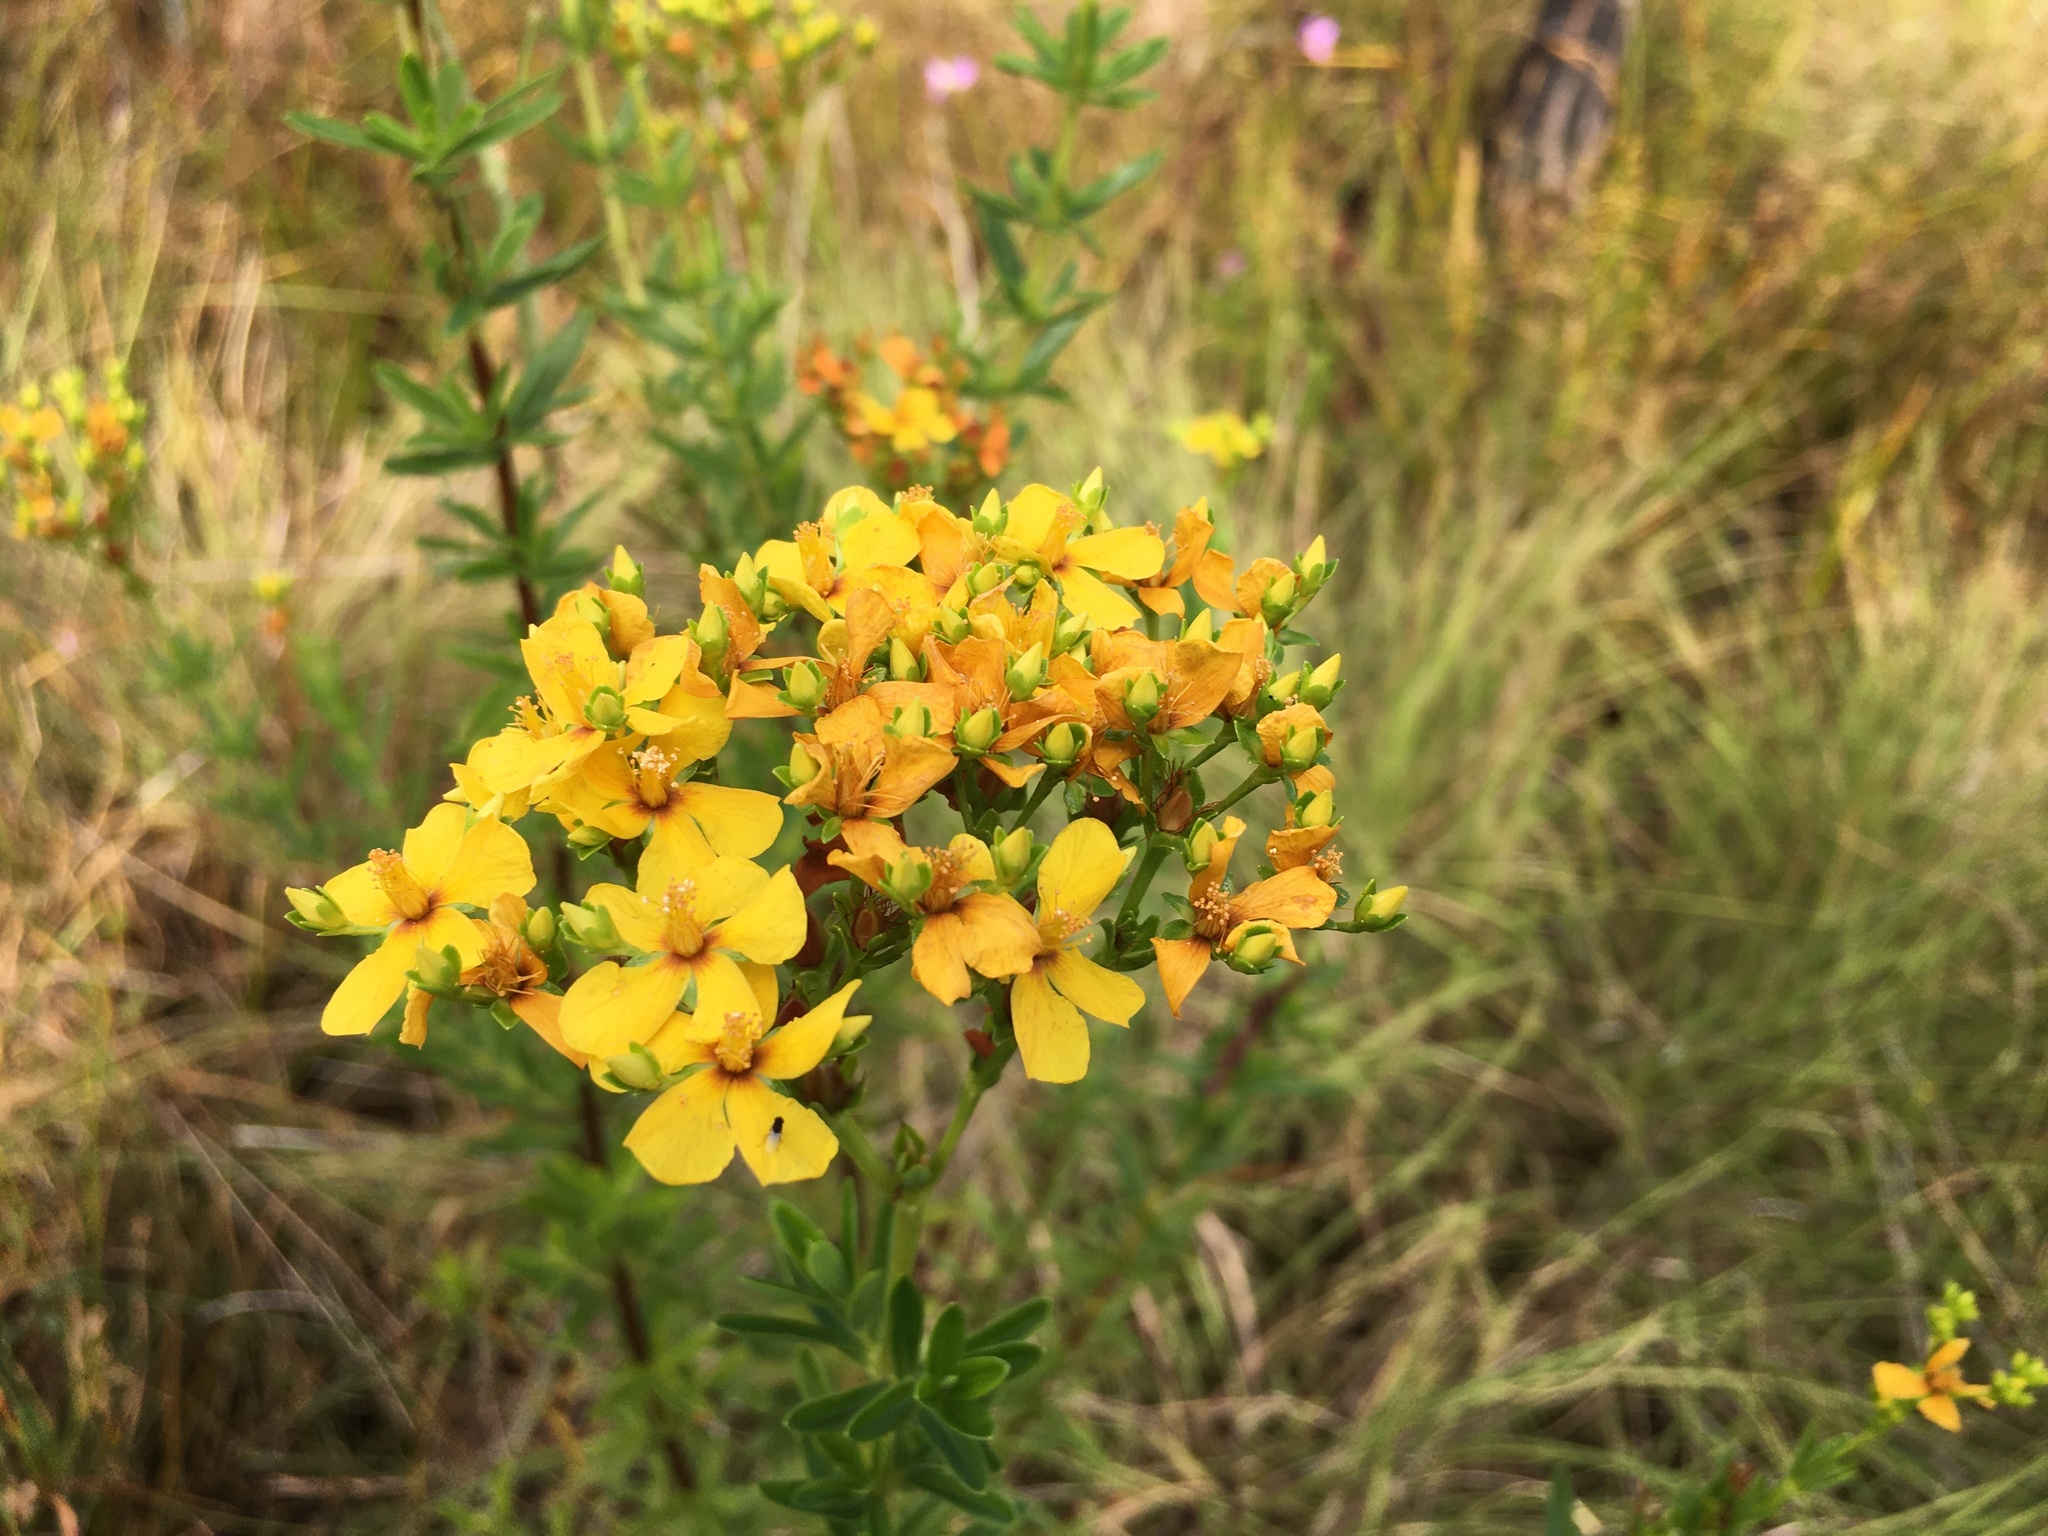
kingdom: Plantae
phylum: Tracheophyta
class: Magnoliopsida
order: Malpighiales
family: Hypericaceae
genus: Hypericum
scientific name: Hypericum cistifolium
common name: Round-pod st. john's-wort
